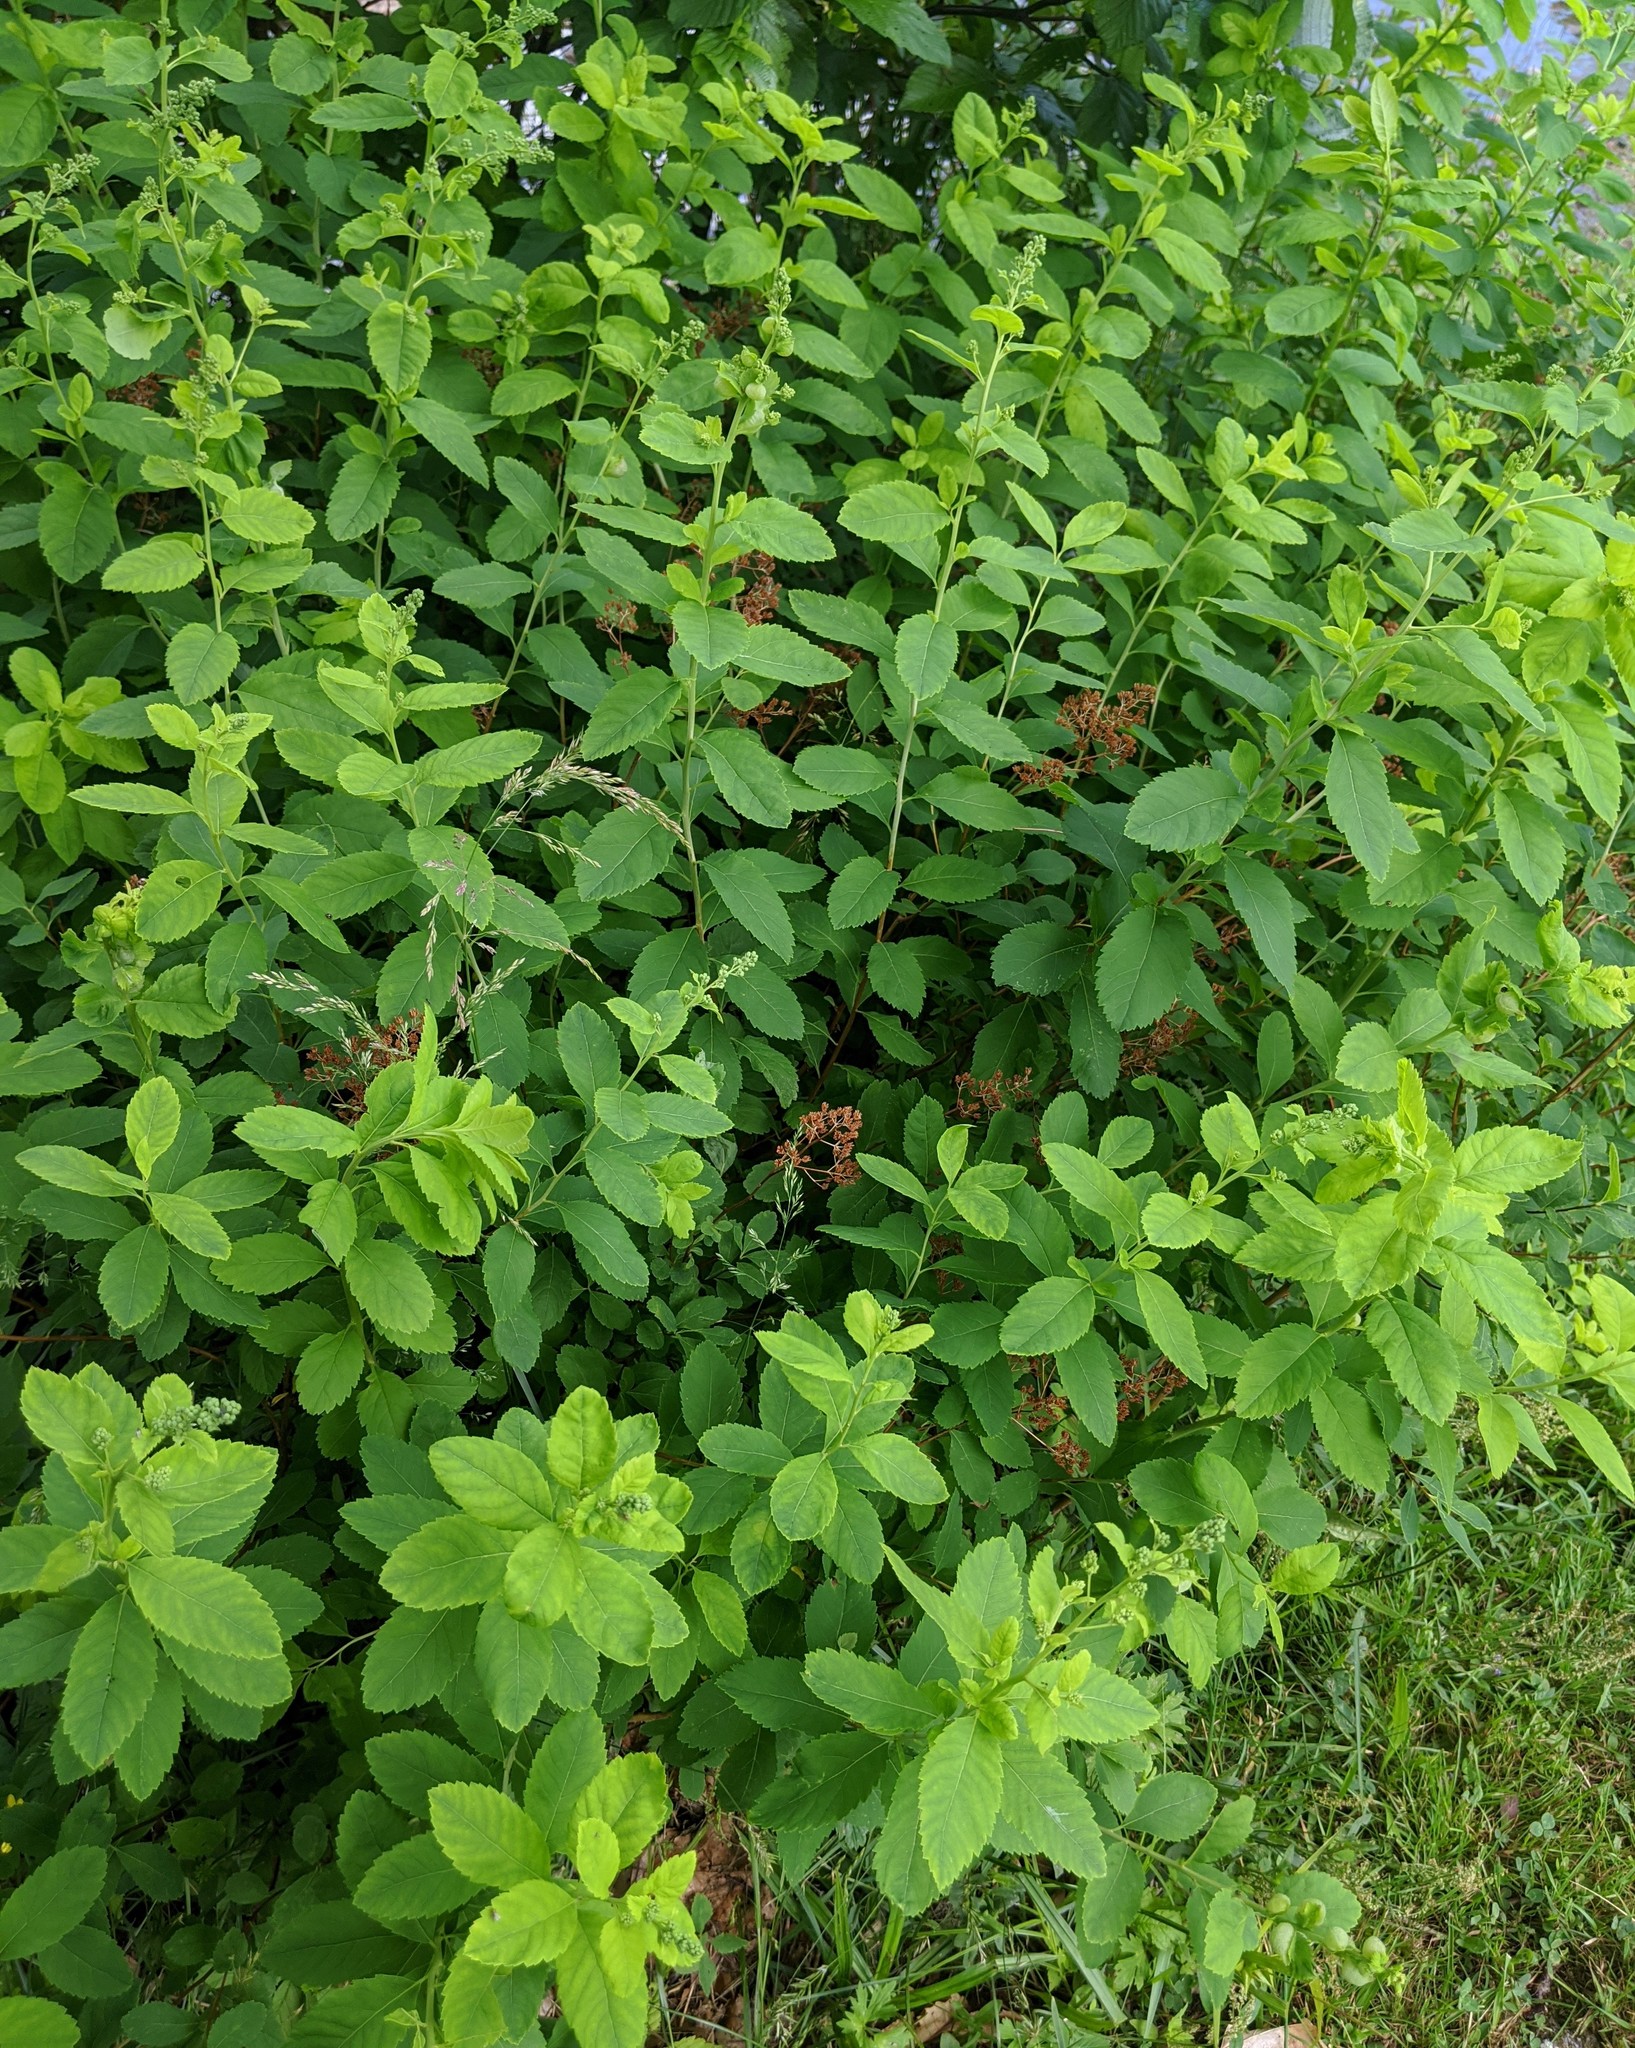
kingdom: Plantae
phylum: Tracheophyta
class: Magnoliopsida
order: Rosales
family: Rosaceae
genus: Spiraea
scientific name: Spiraea alba
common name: Pale bridewort
